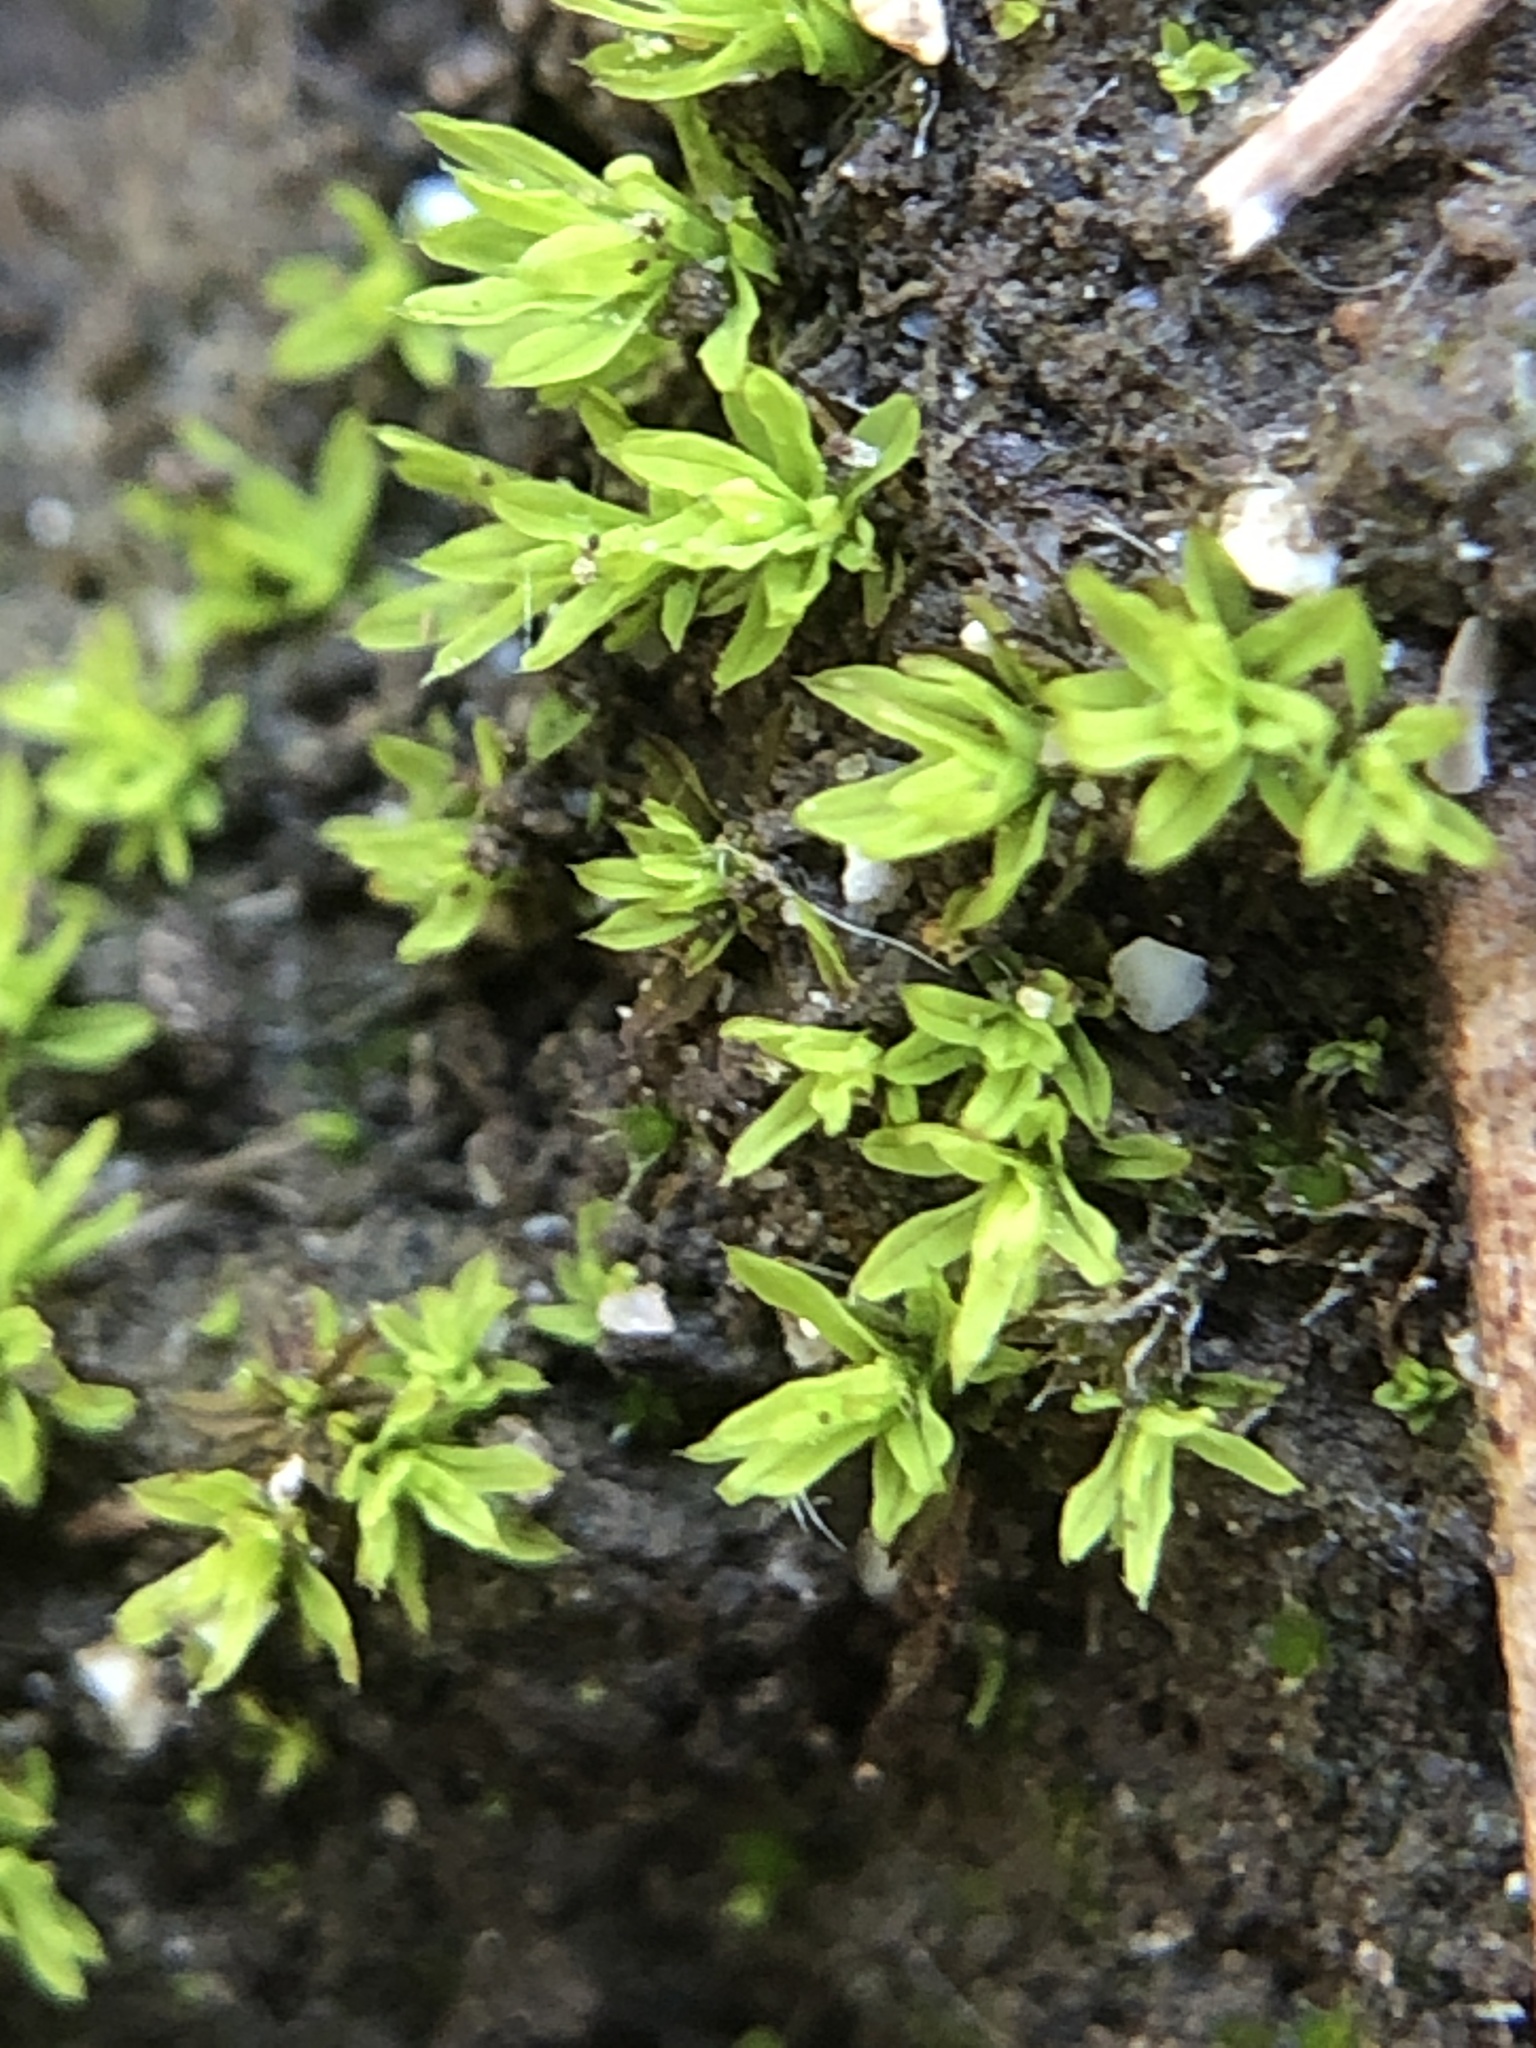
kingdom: Plantae
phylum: Bryophyta
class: Bryopsida
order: Pottiales
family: Pottiaceae
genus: Barbula
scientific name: Barbula unguiculata
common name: Prickly beard moss
